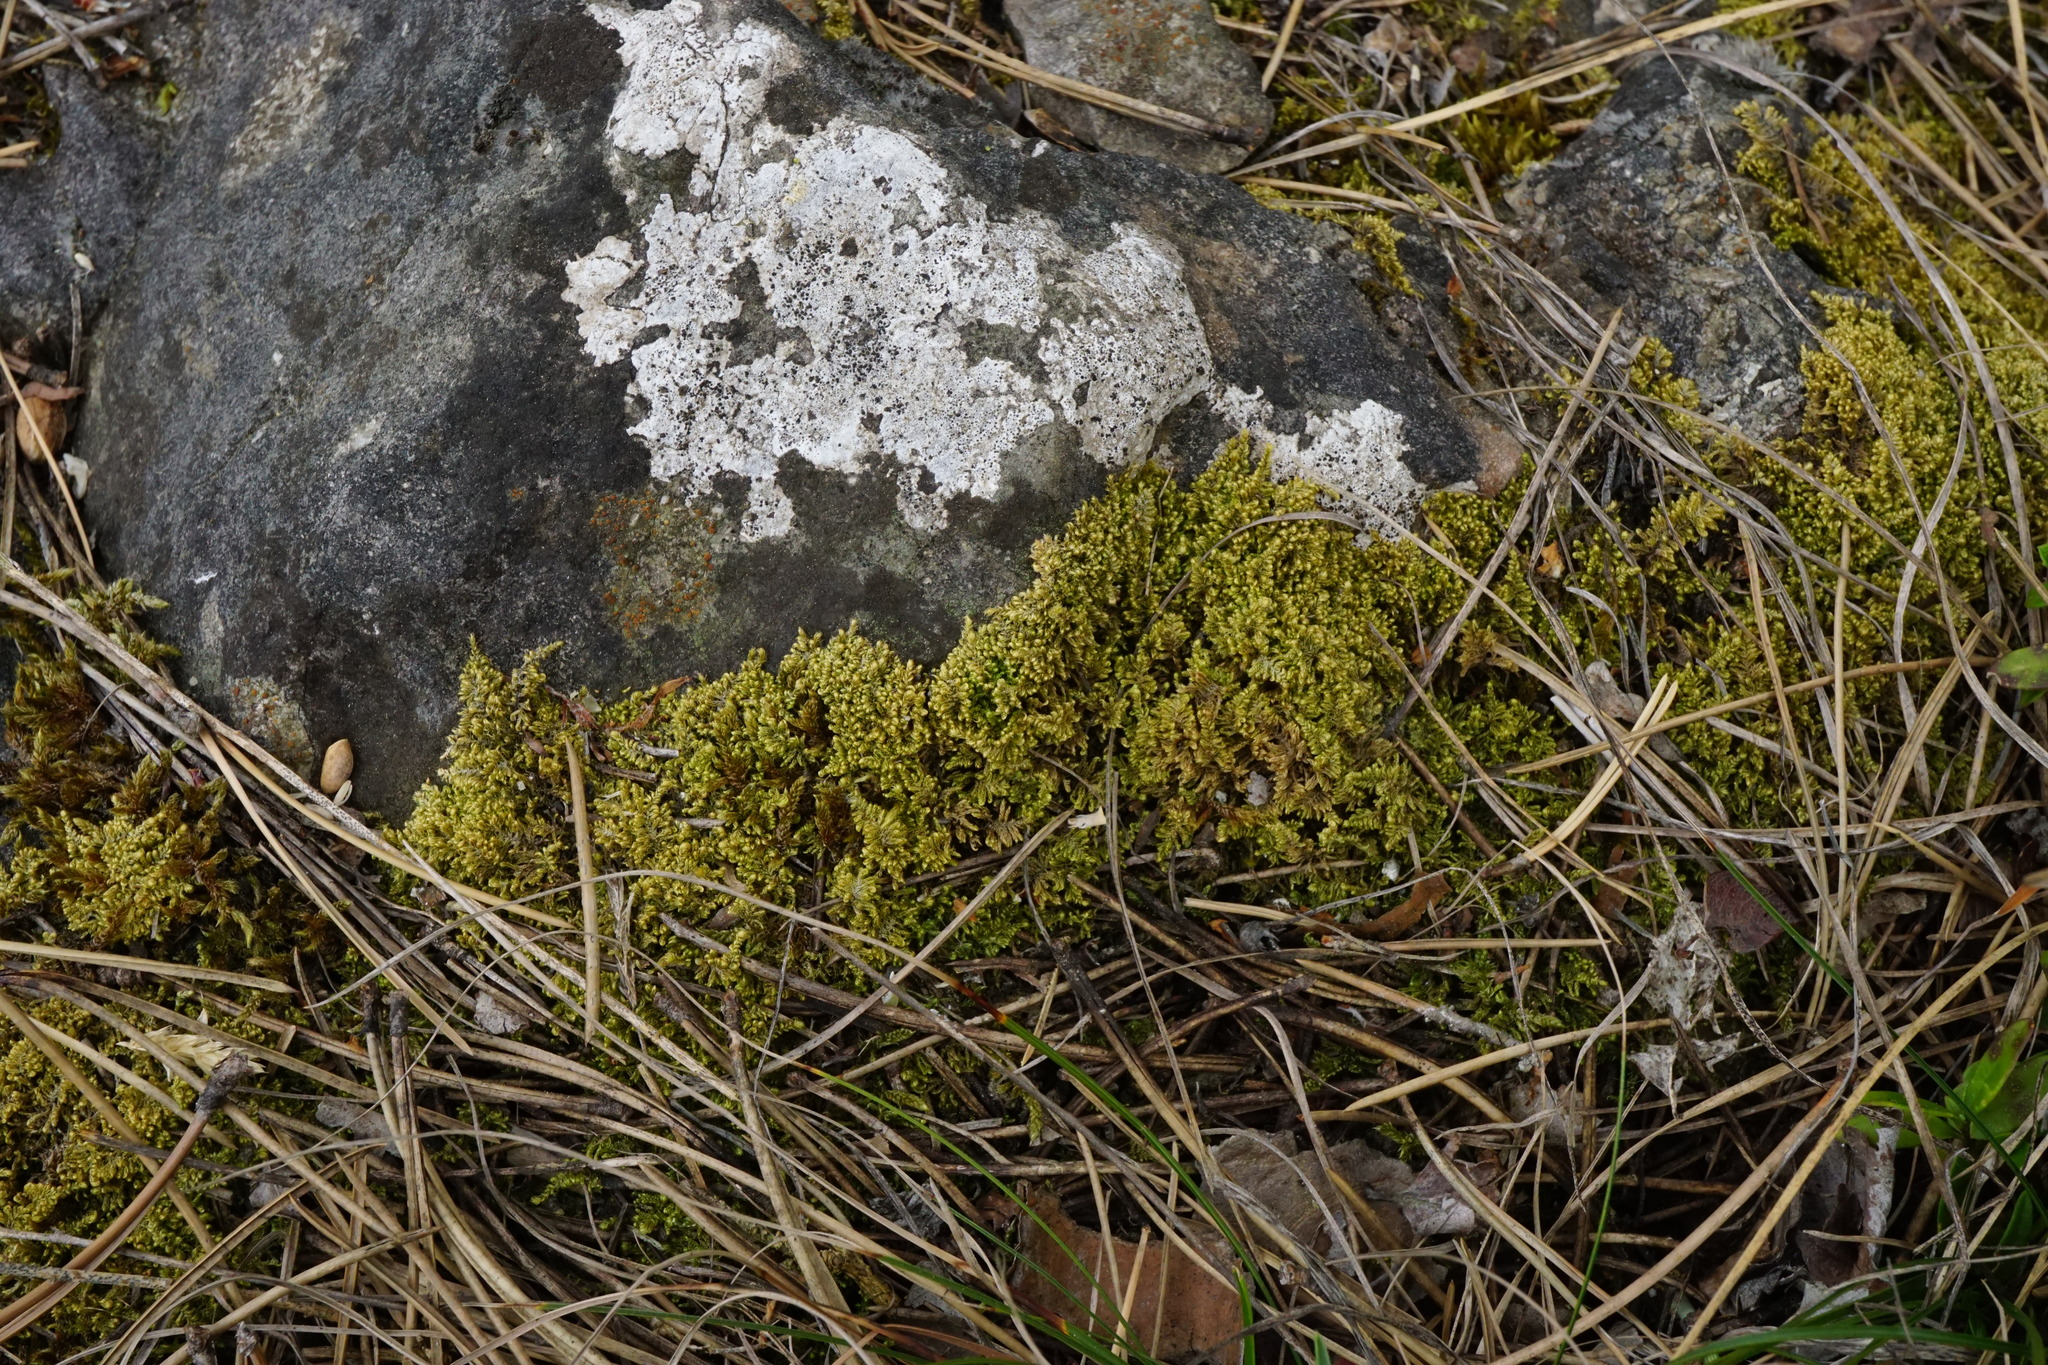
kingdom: Plantae
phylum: Bryophyta
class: Bryopsida
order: Hypnales
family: Myuriaceae
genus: Ctenidium
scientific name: Ctenidium molluscum
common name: Chalk comb-moss
